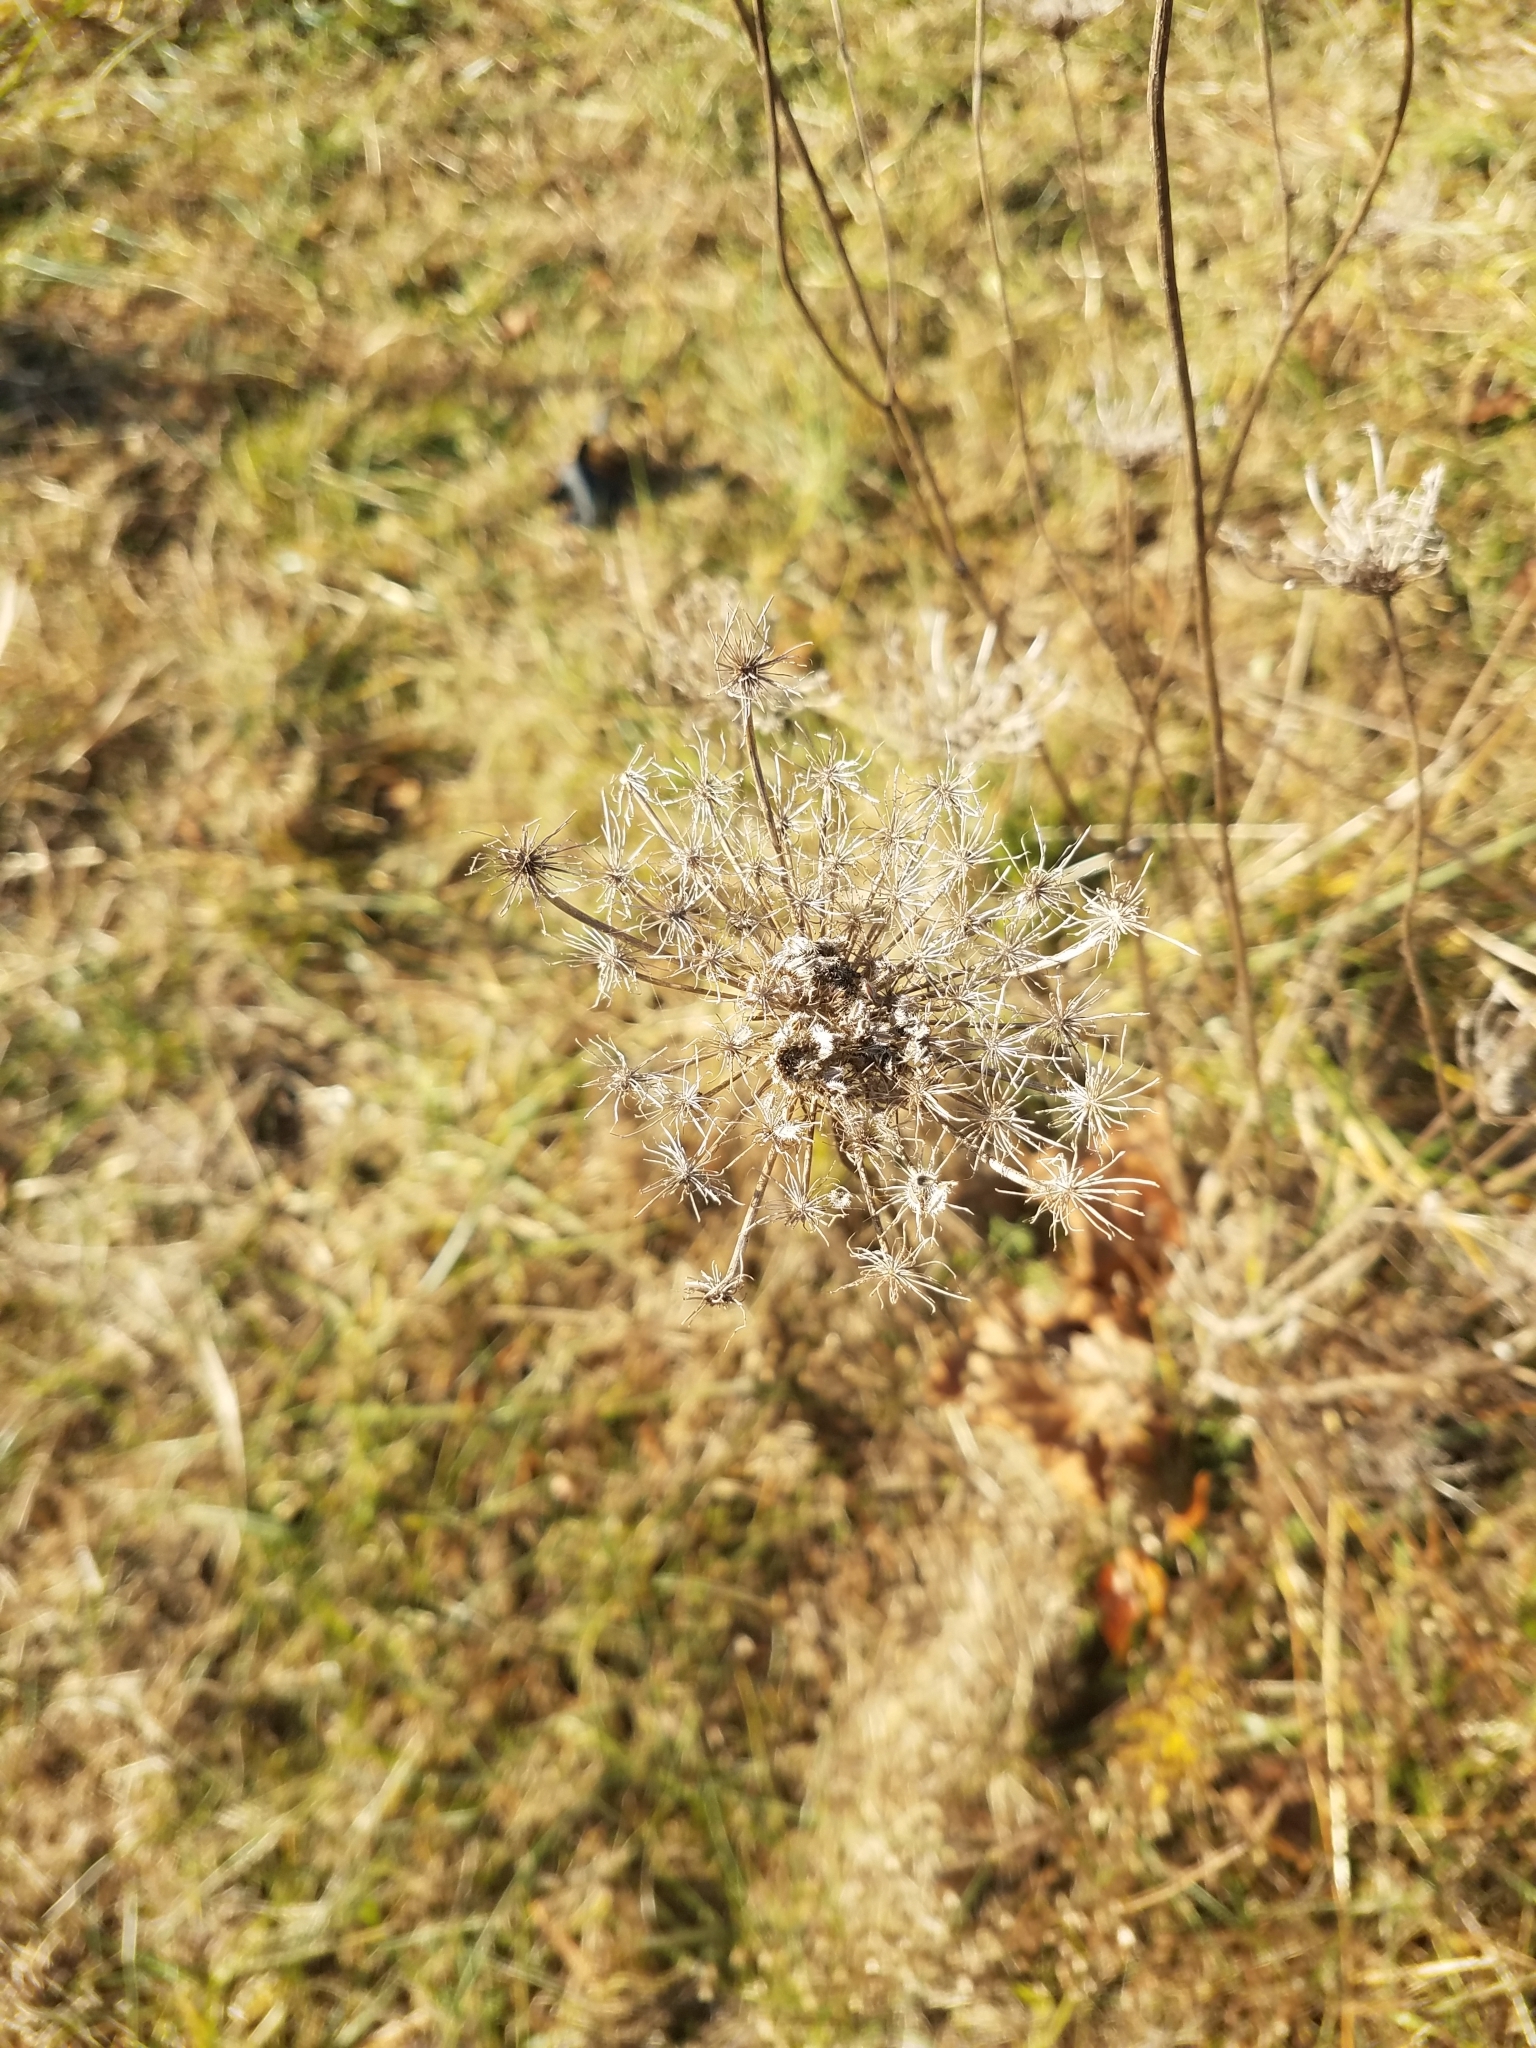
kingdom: Plantae
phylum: Tracheophyta
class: Magnoliopsida
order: Apiales
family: Apiaceae
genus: Daucus
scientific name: Daucus carota
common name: Wild carrot
